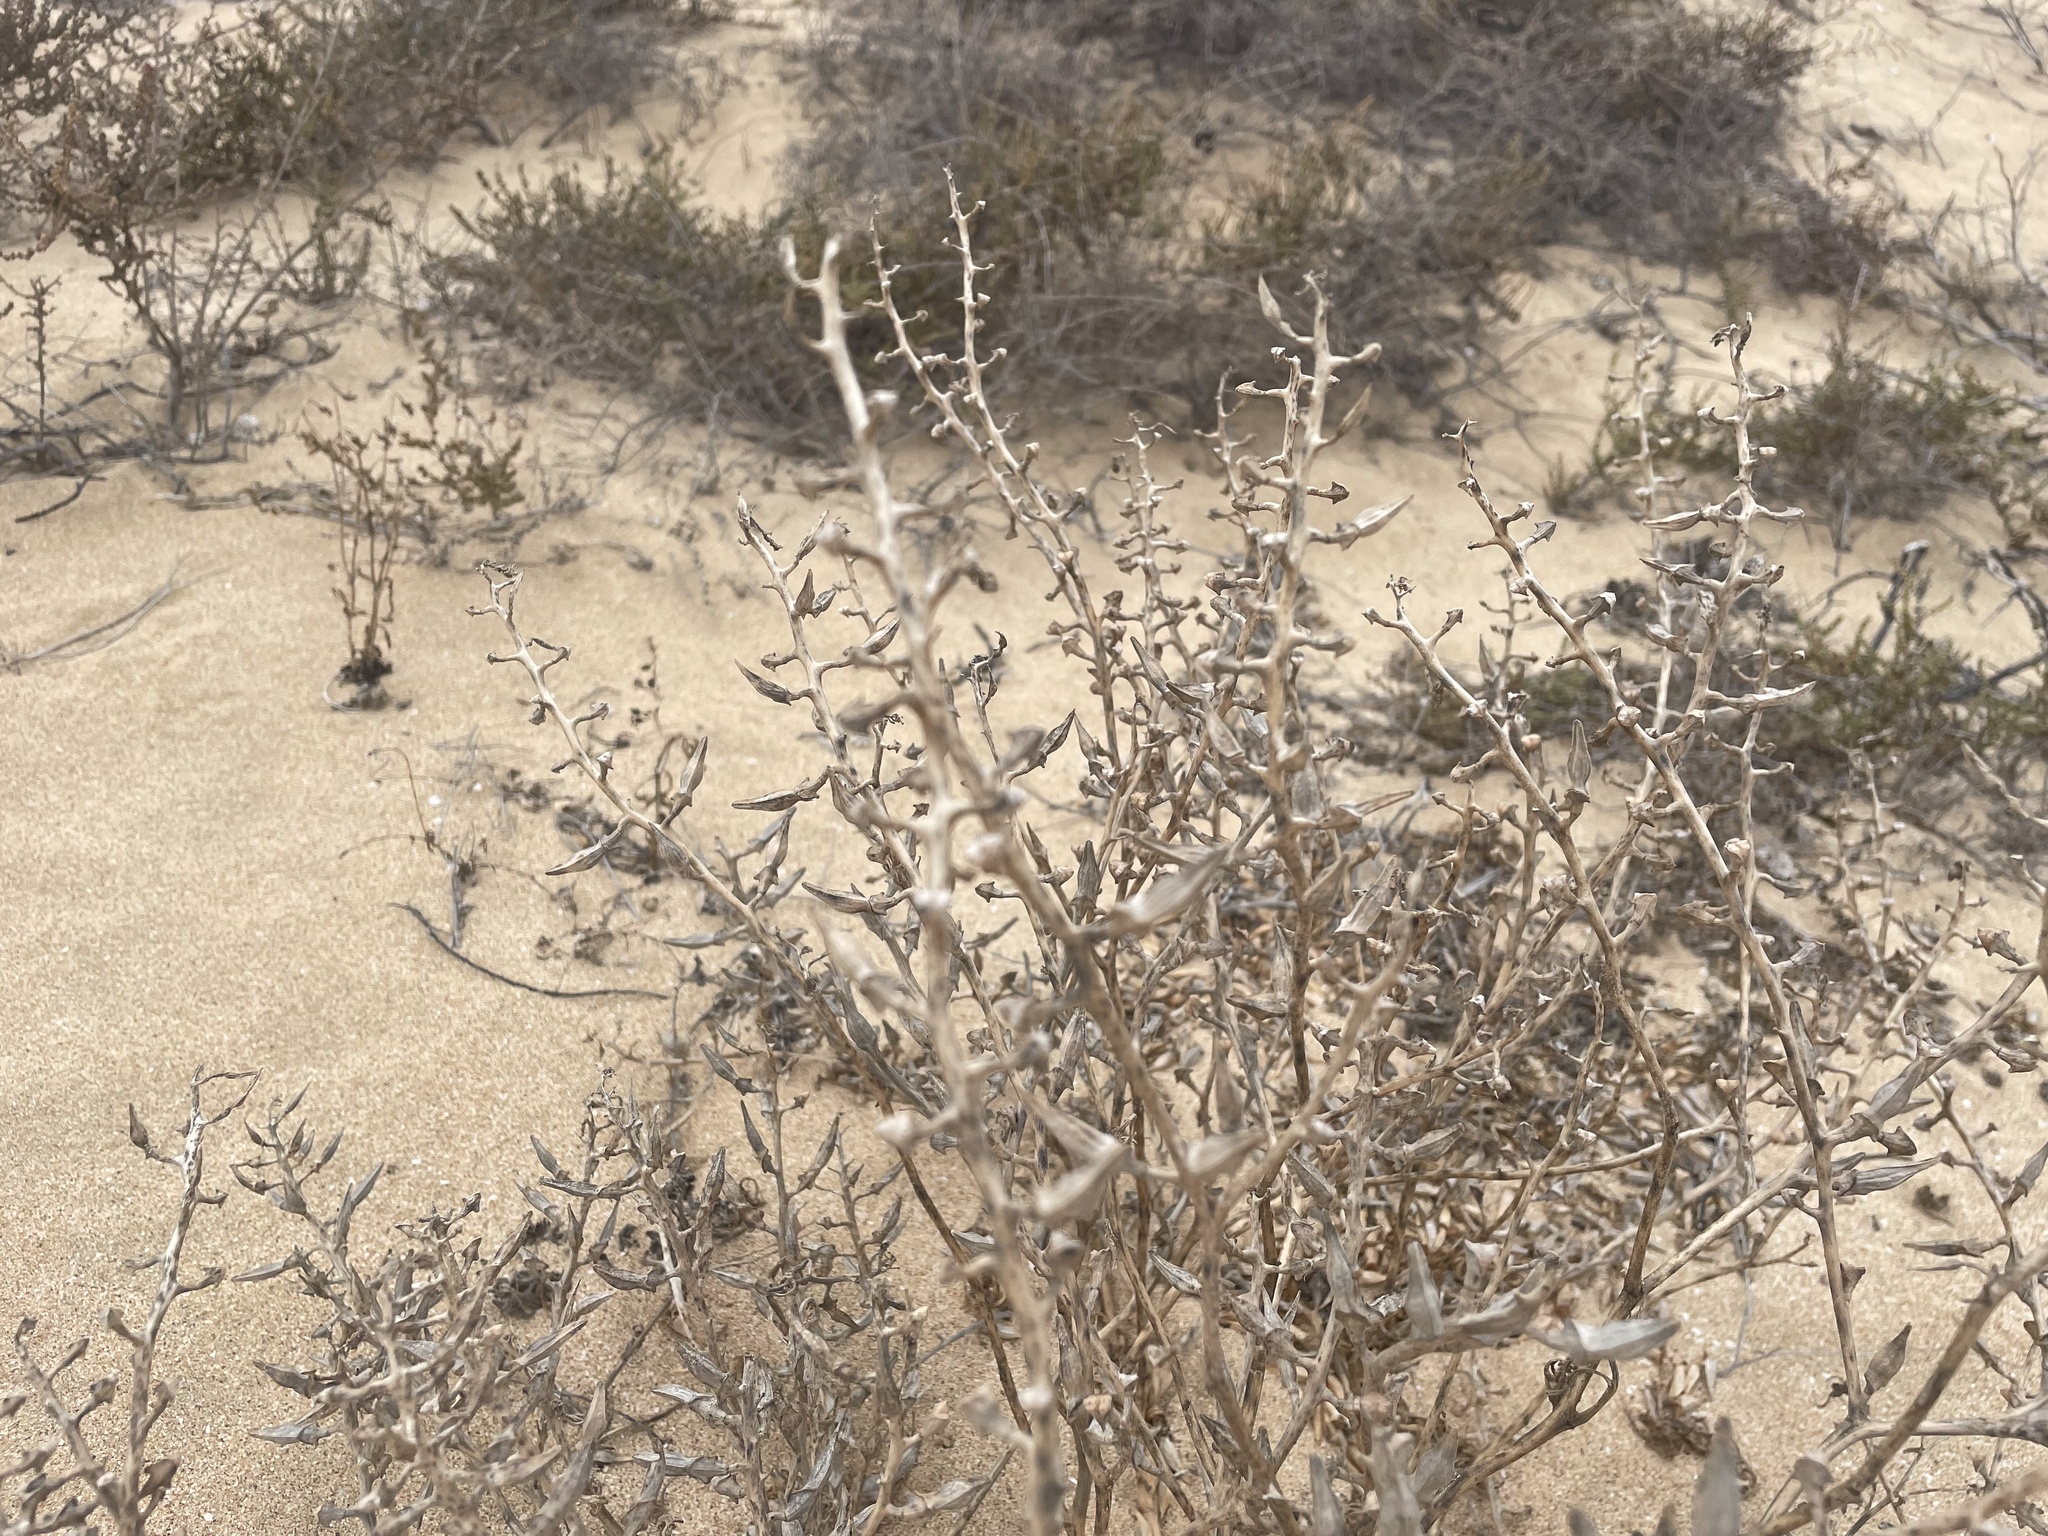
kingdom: Plantae
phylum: Tracheophyta
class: Magnoliopsida
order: Brassicales
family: Brassicaceae
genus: Cakile
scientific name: Cakile maritima
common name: Sea rocket
